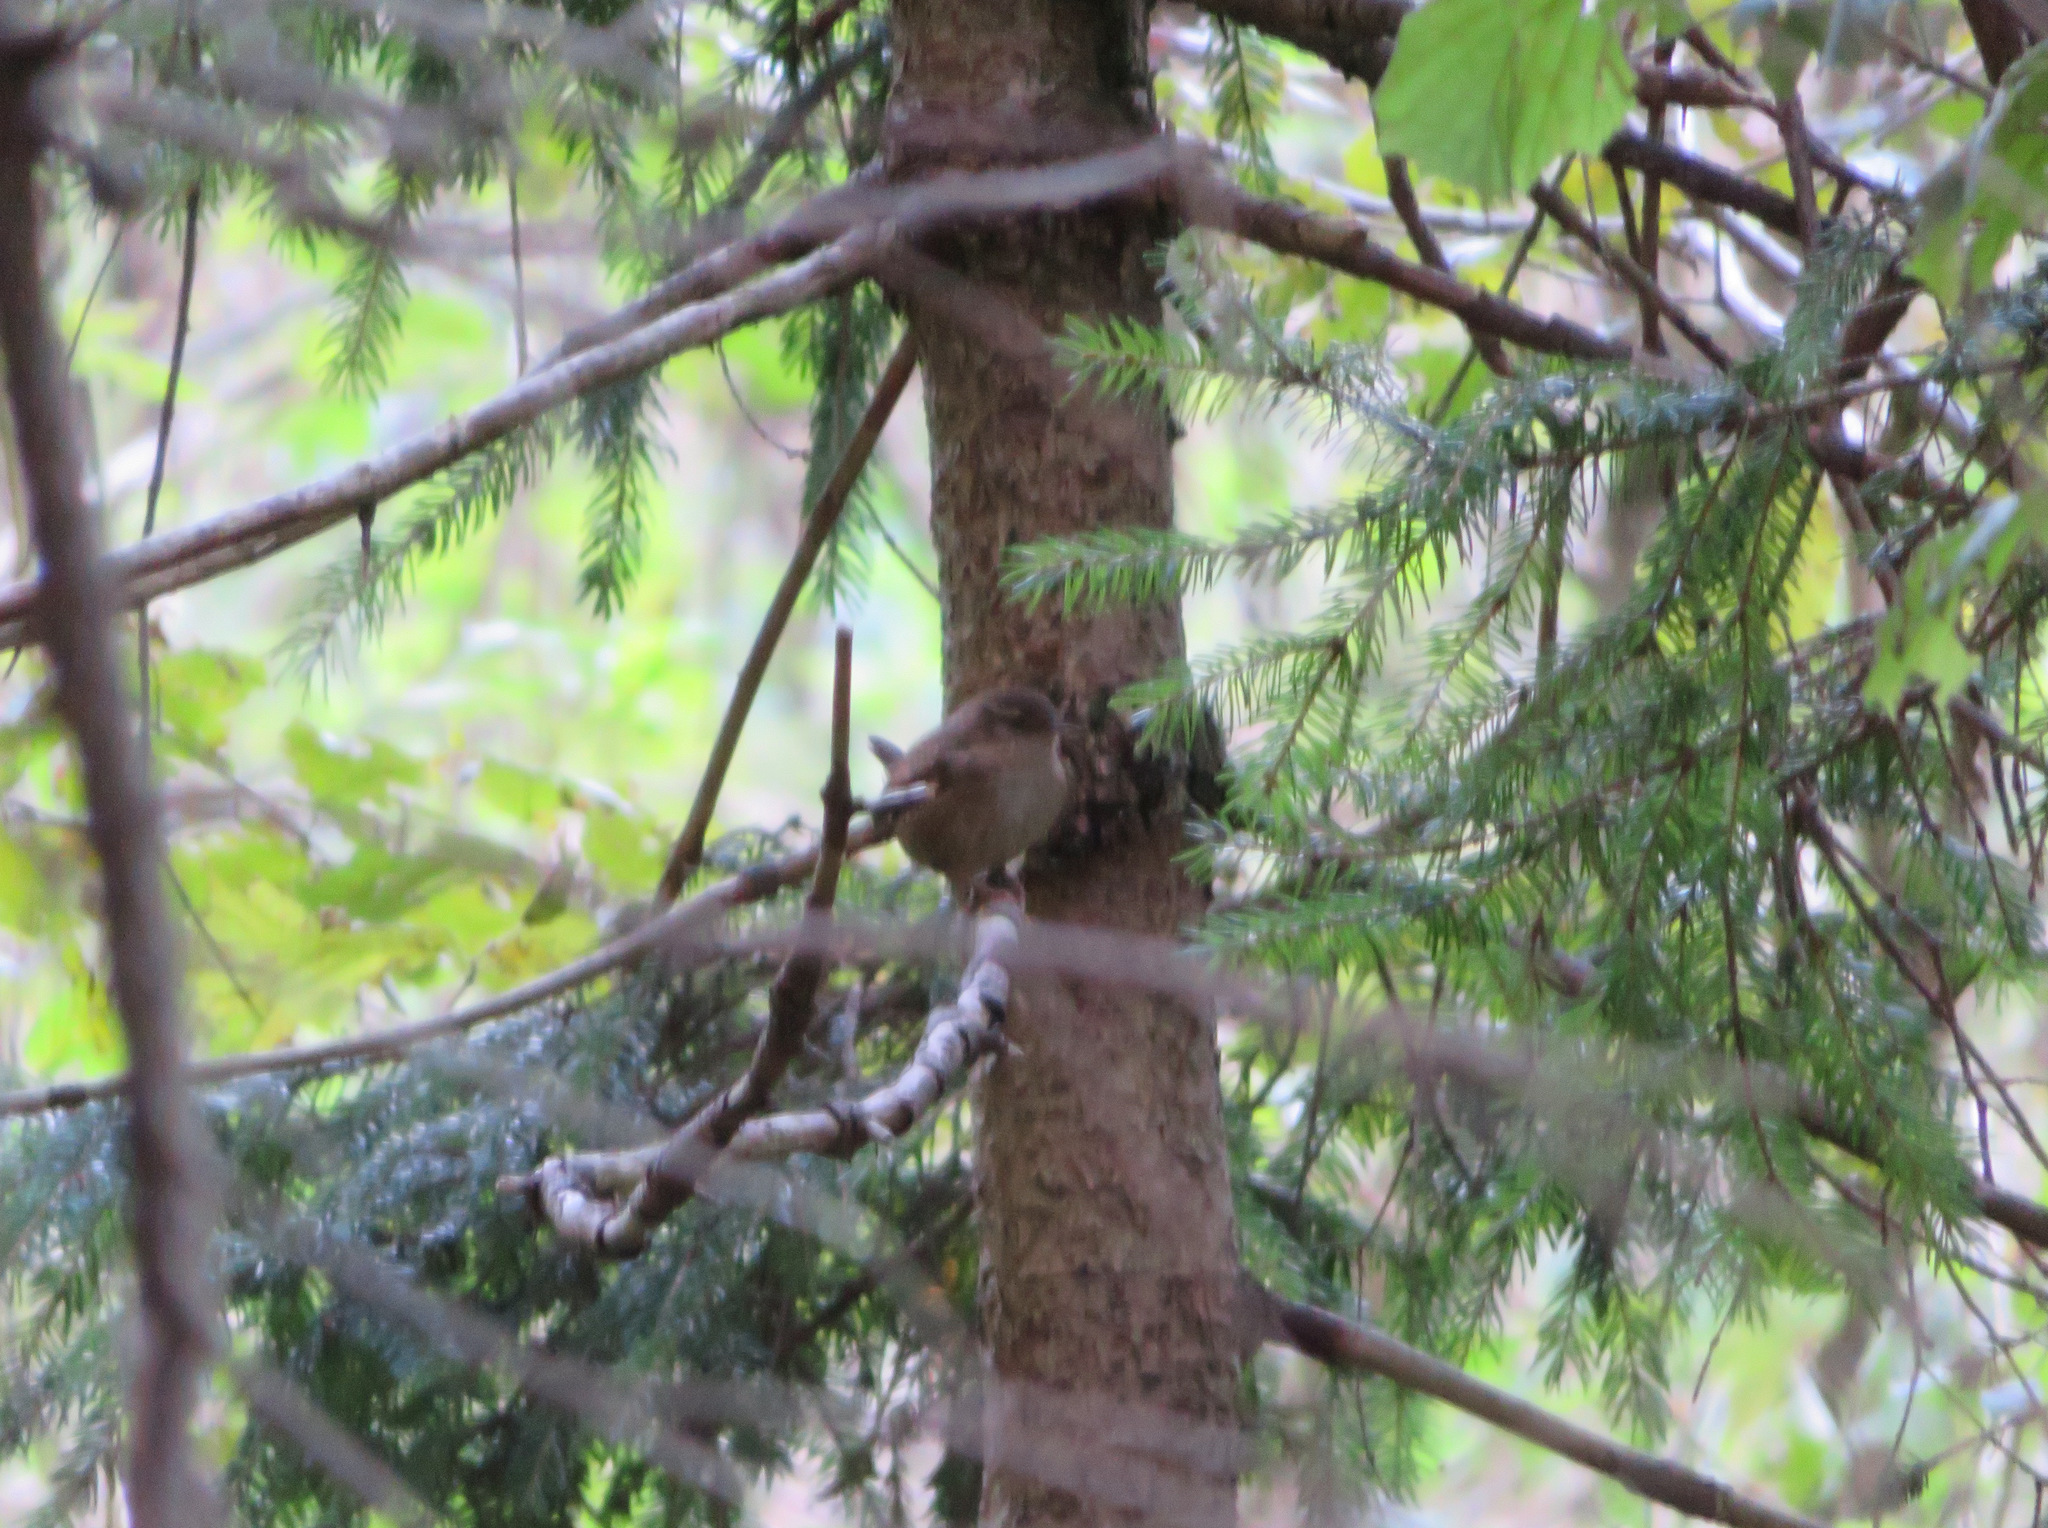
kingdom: Animalia
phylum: Chordata
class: Aves
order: Passeriformes
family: Troglodytidae
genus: Troglodytes
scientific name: Troglodytes troglodytes
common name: Eurasian wren
